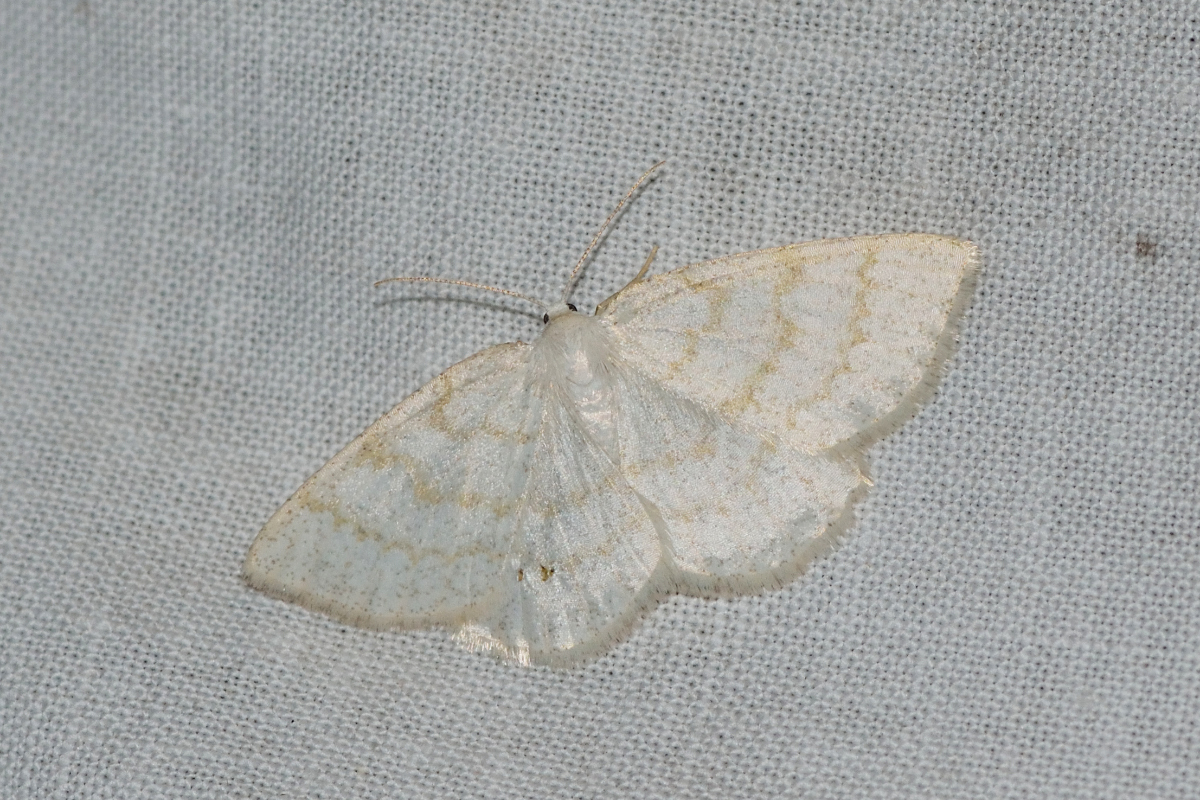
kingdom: Animalia
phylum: Arthropoda
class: Insecta
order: Lepidoptera
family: Geometridae
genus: Cabera
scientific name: Cabera exanthemata
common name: Common wave
